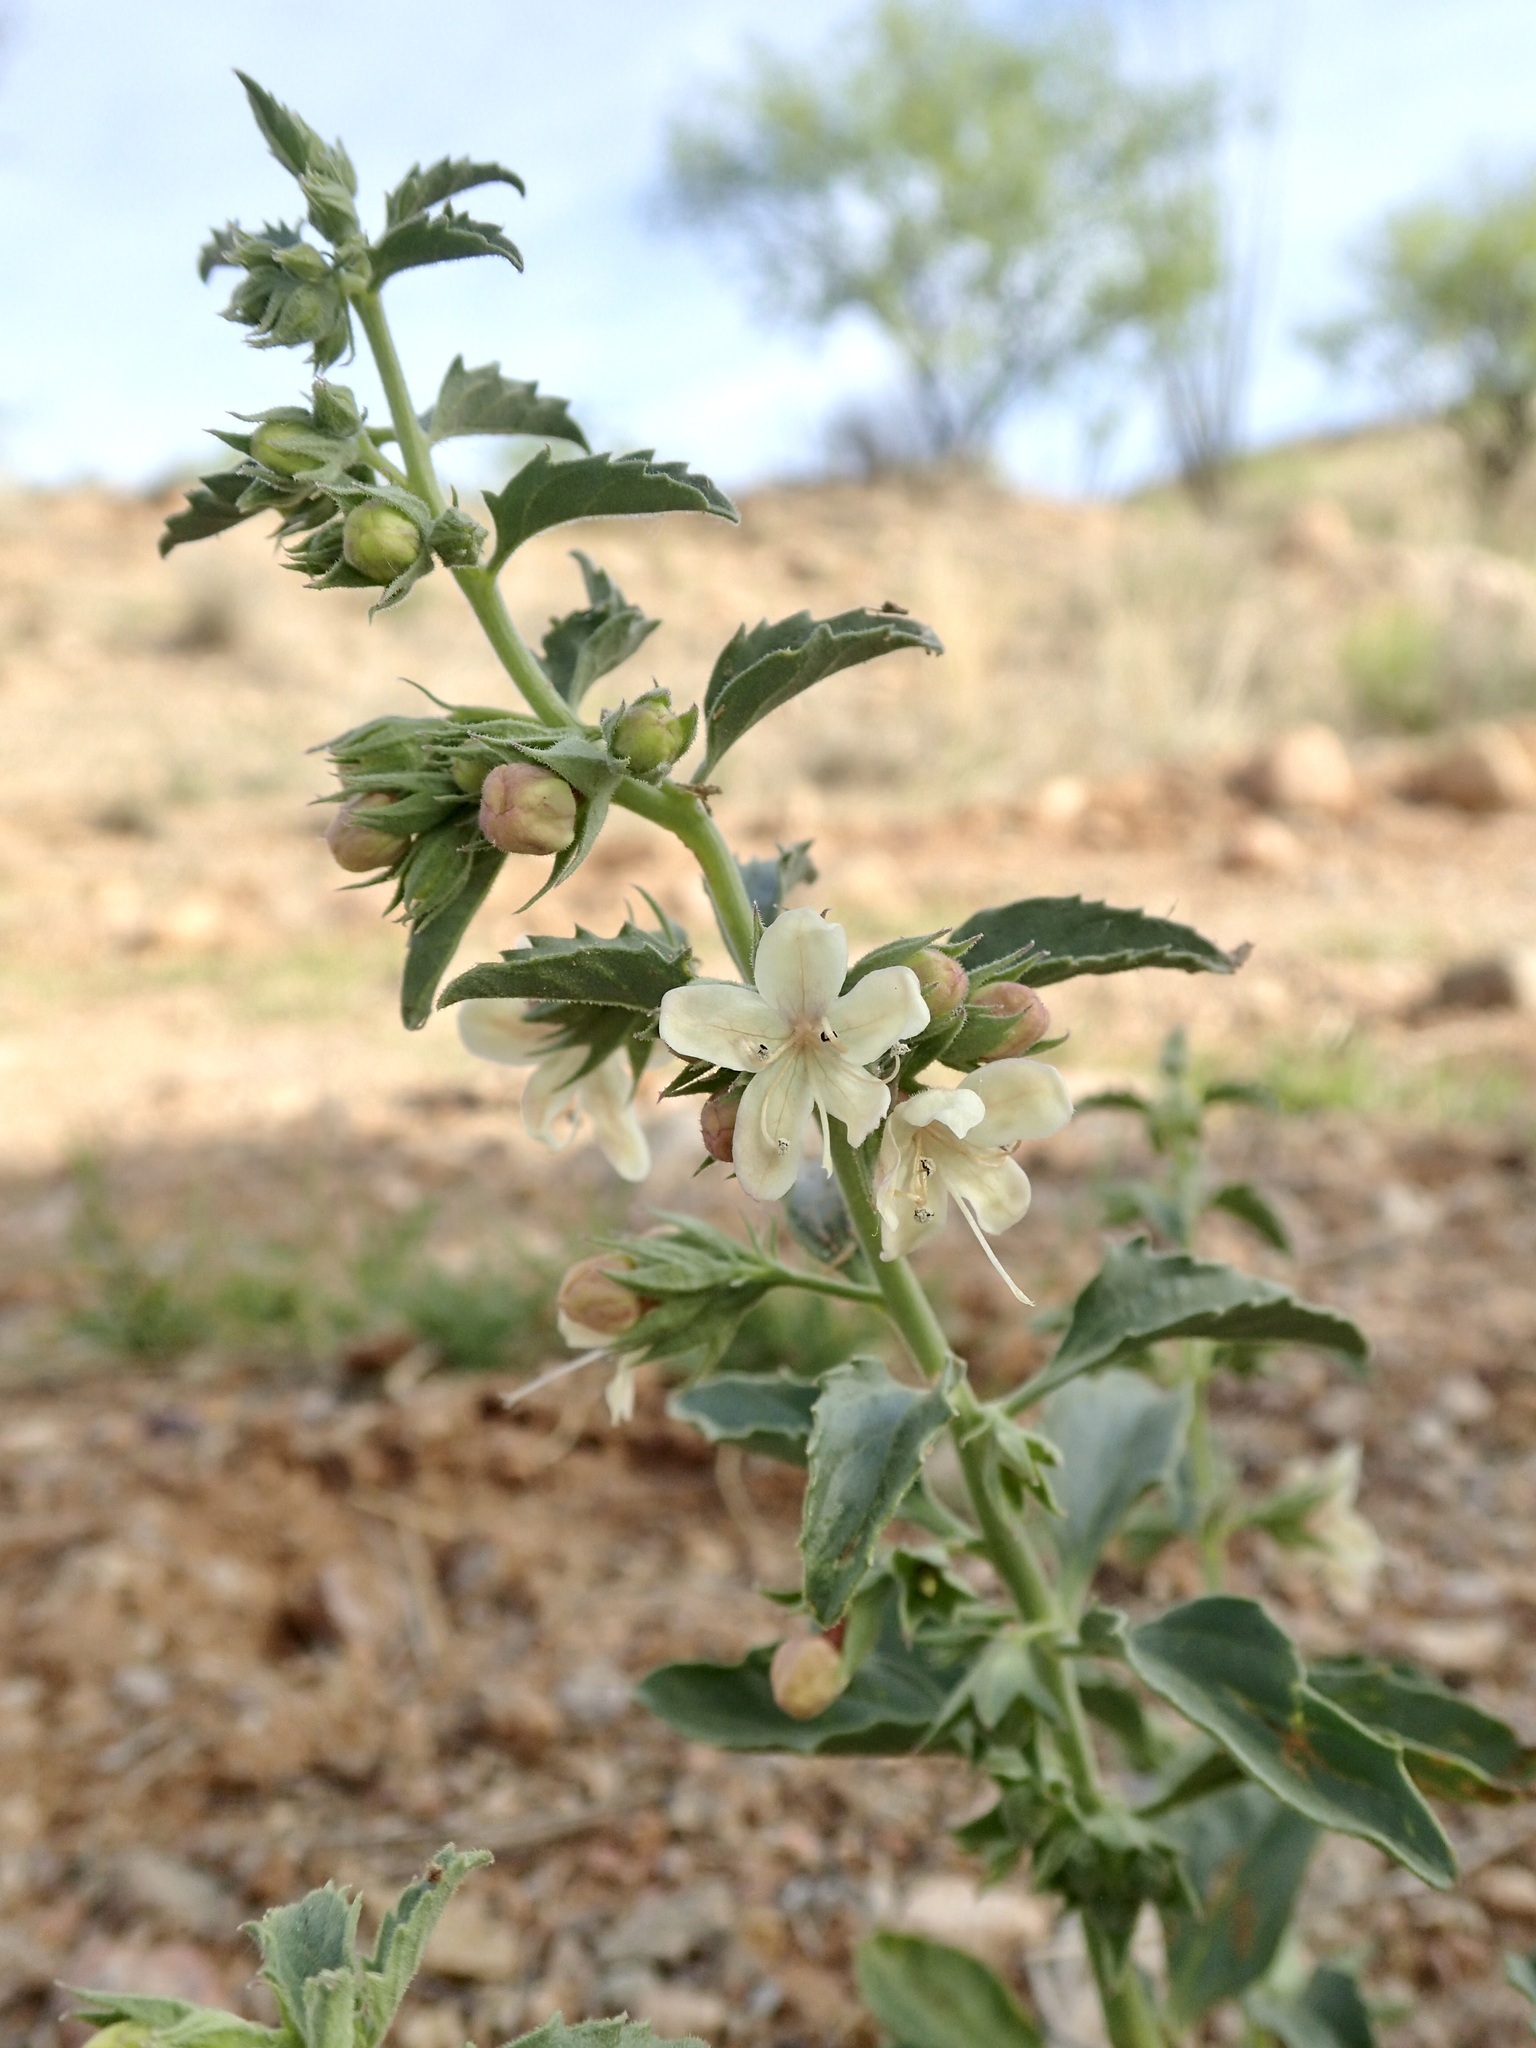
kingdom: Plantae
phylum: Tracheophyta
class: Magnoliopsida
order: Lamiales
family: Lamiaceae
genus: Tetraclea
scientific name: Tetraclea coulteri
